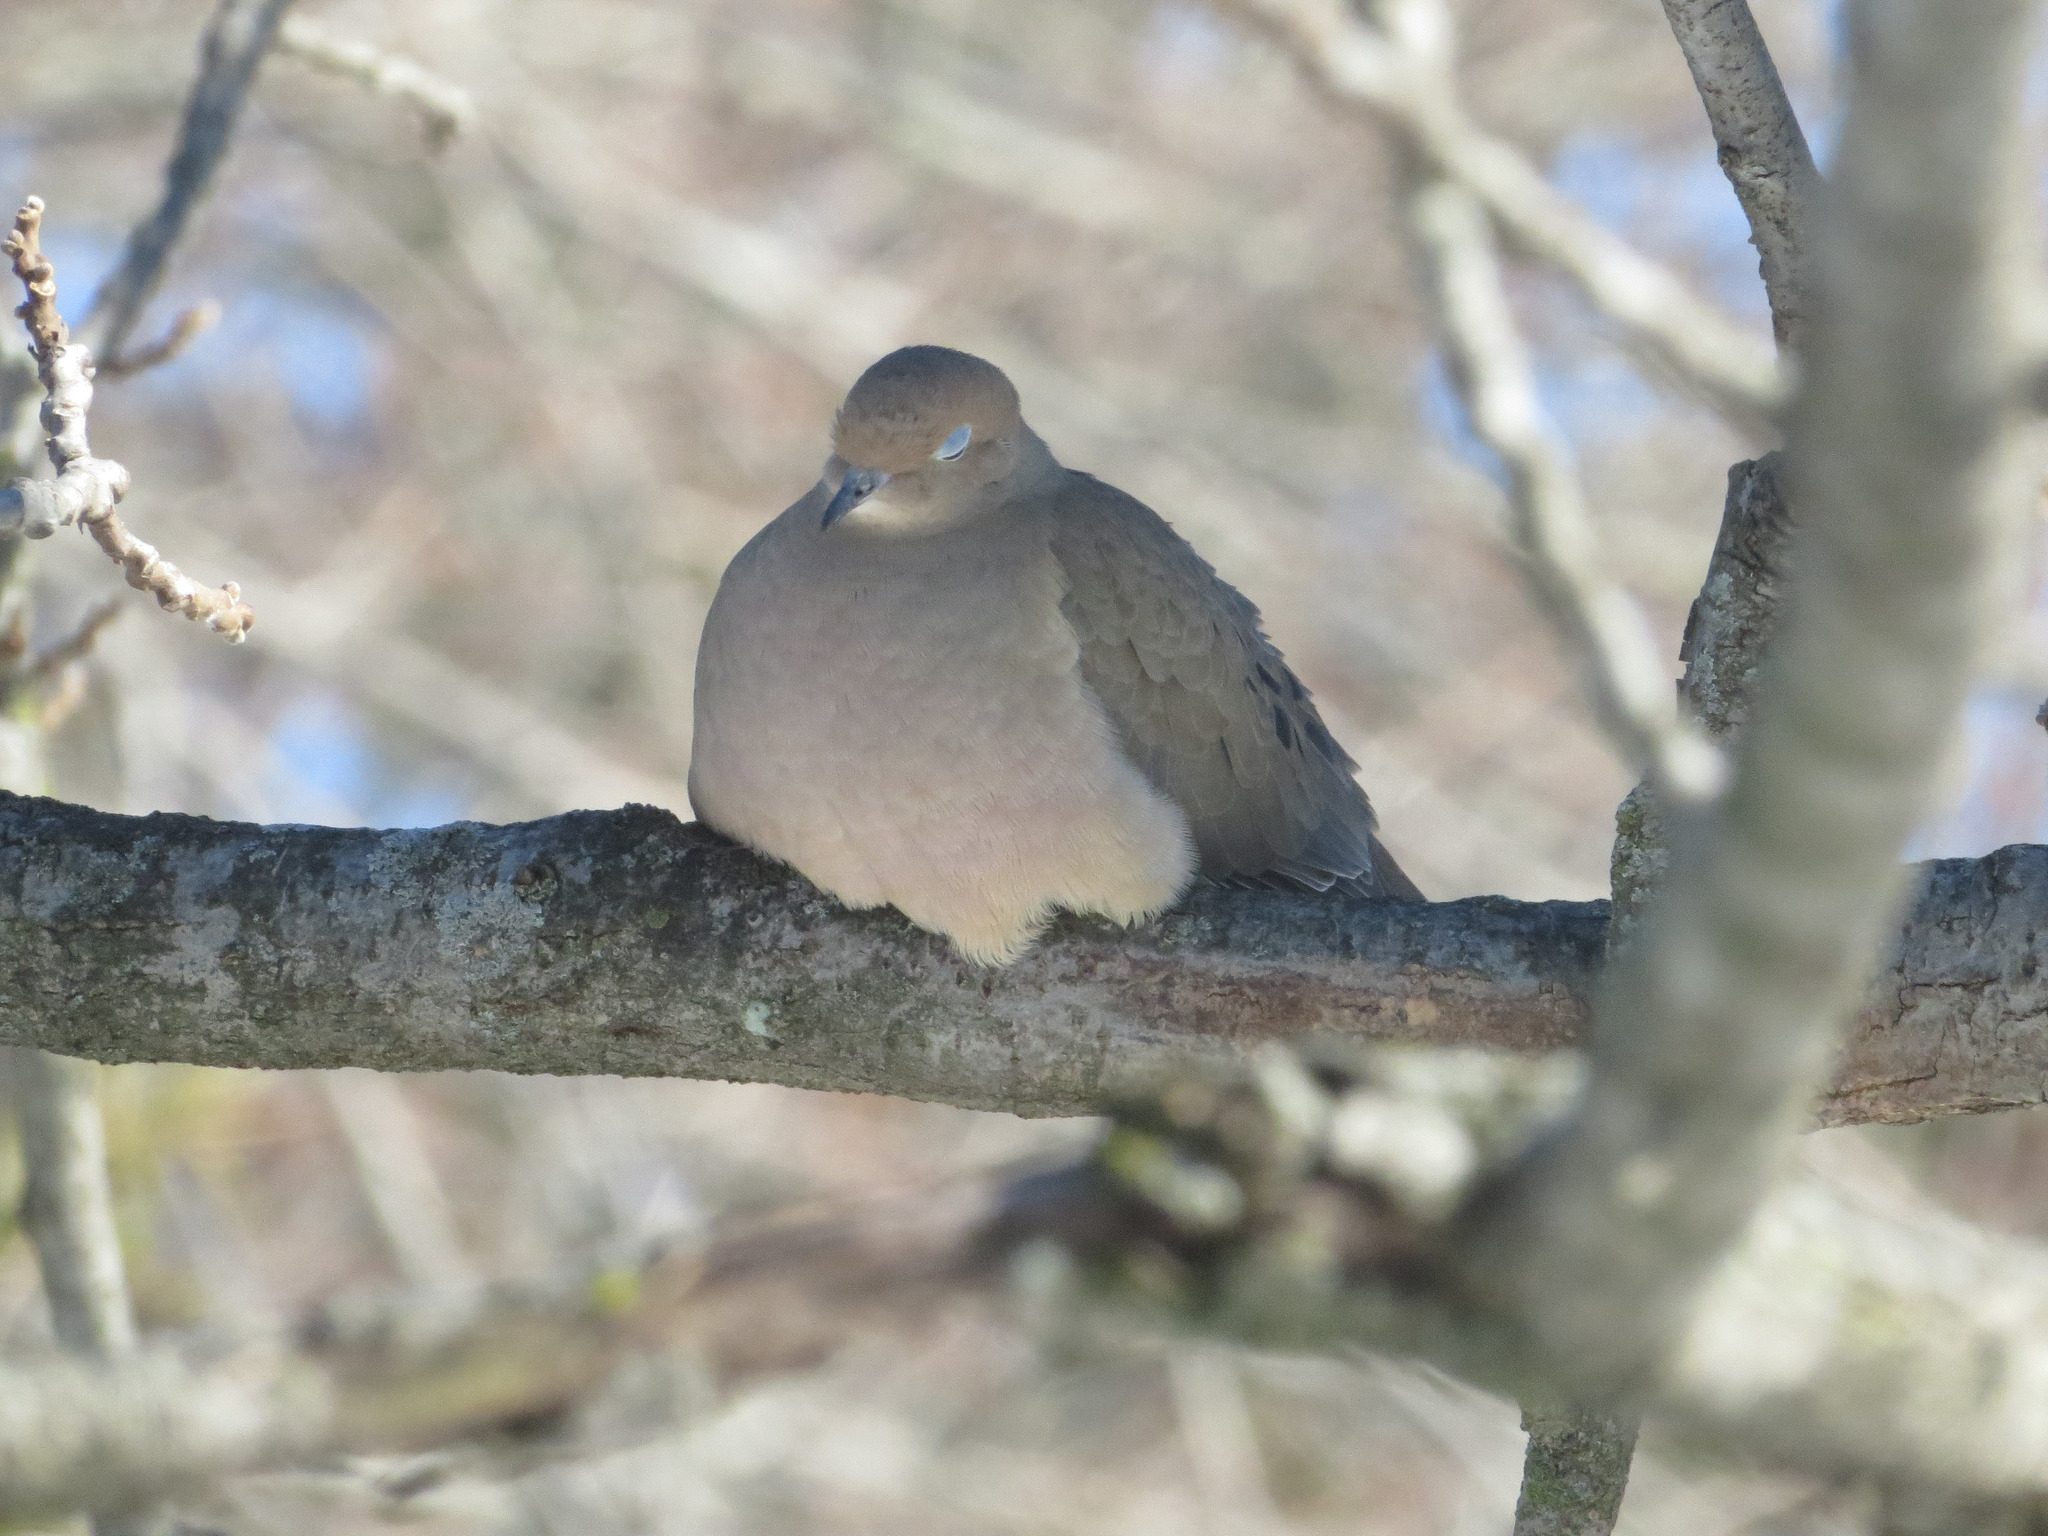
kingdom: Animalia
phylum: Chordata
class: Aves
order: Columbiformes
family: Columbidae
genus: Zenaida
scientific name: Zenaida macroura
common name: Mourning dove
